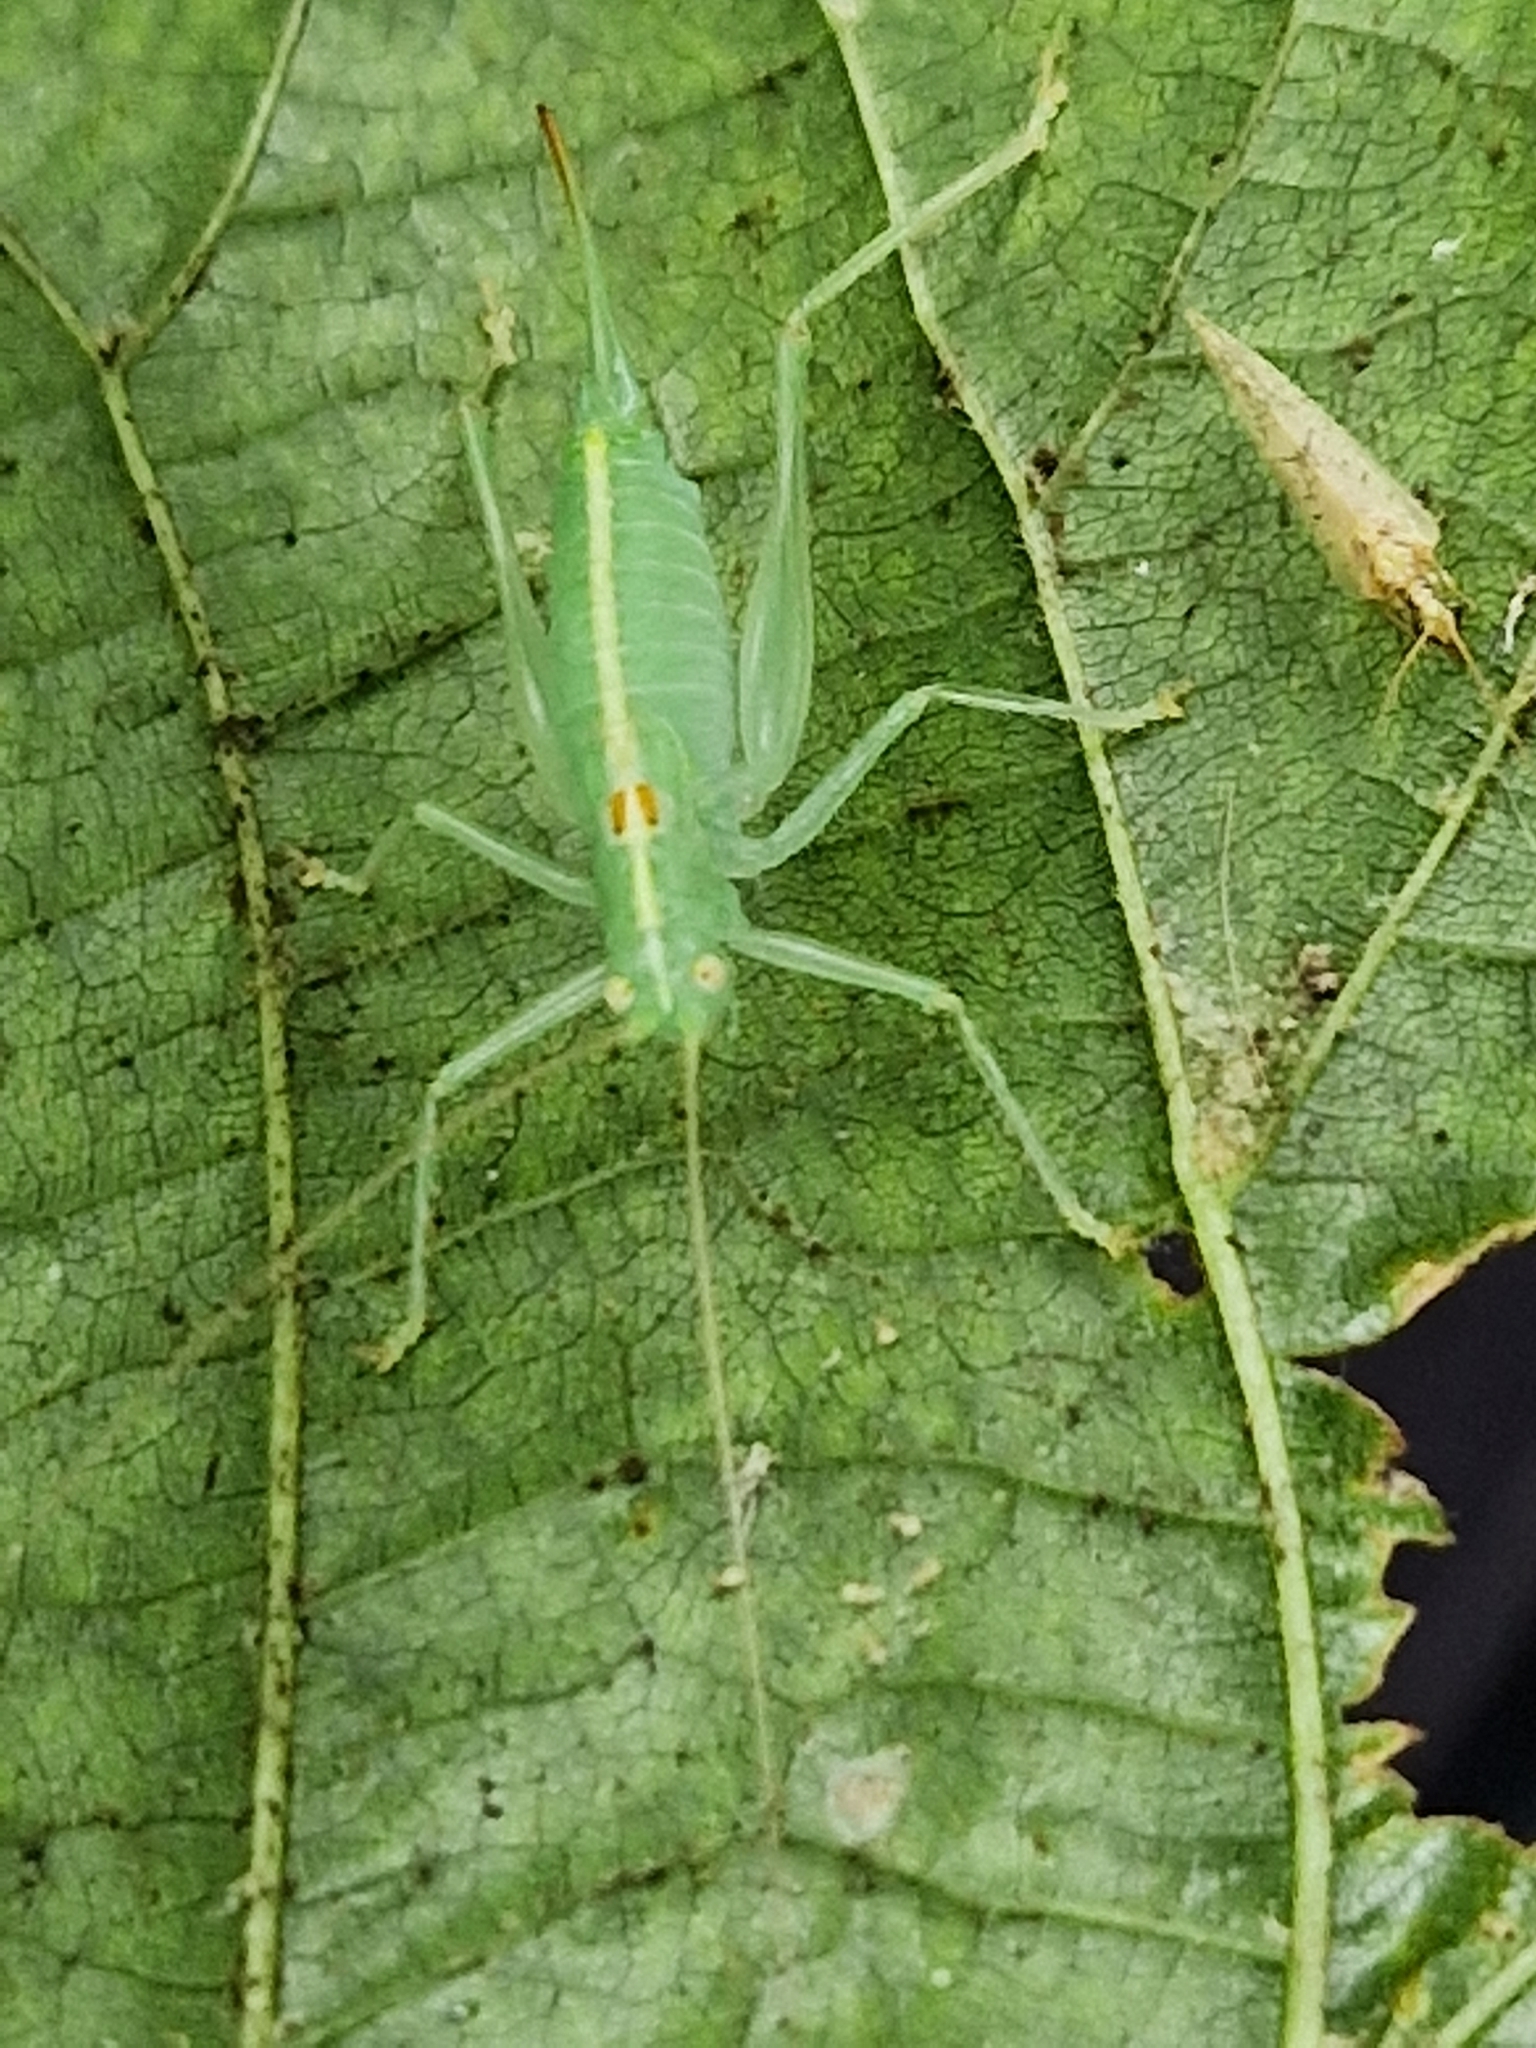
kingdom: Animalia
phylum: Arthropoda
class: Insecta
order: Orthoptera
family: Tettigoniidae
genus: Meconema
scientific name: Meconema meridionale
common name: Southern oak bush-cricket
